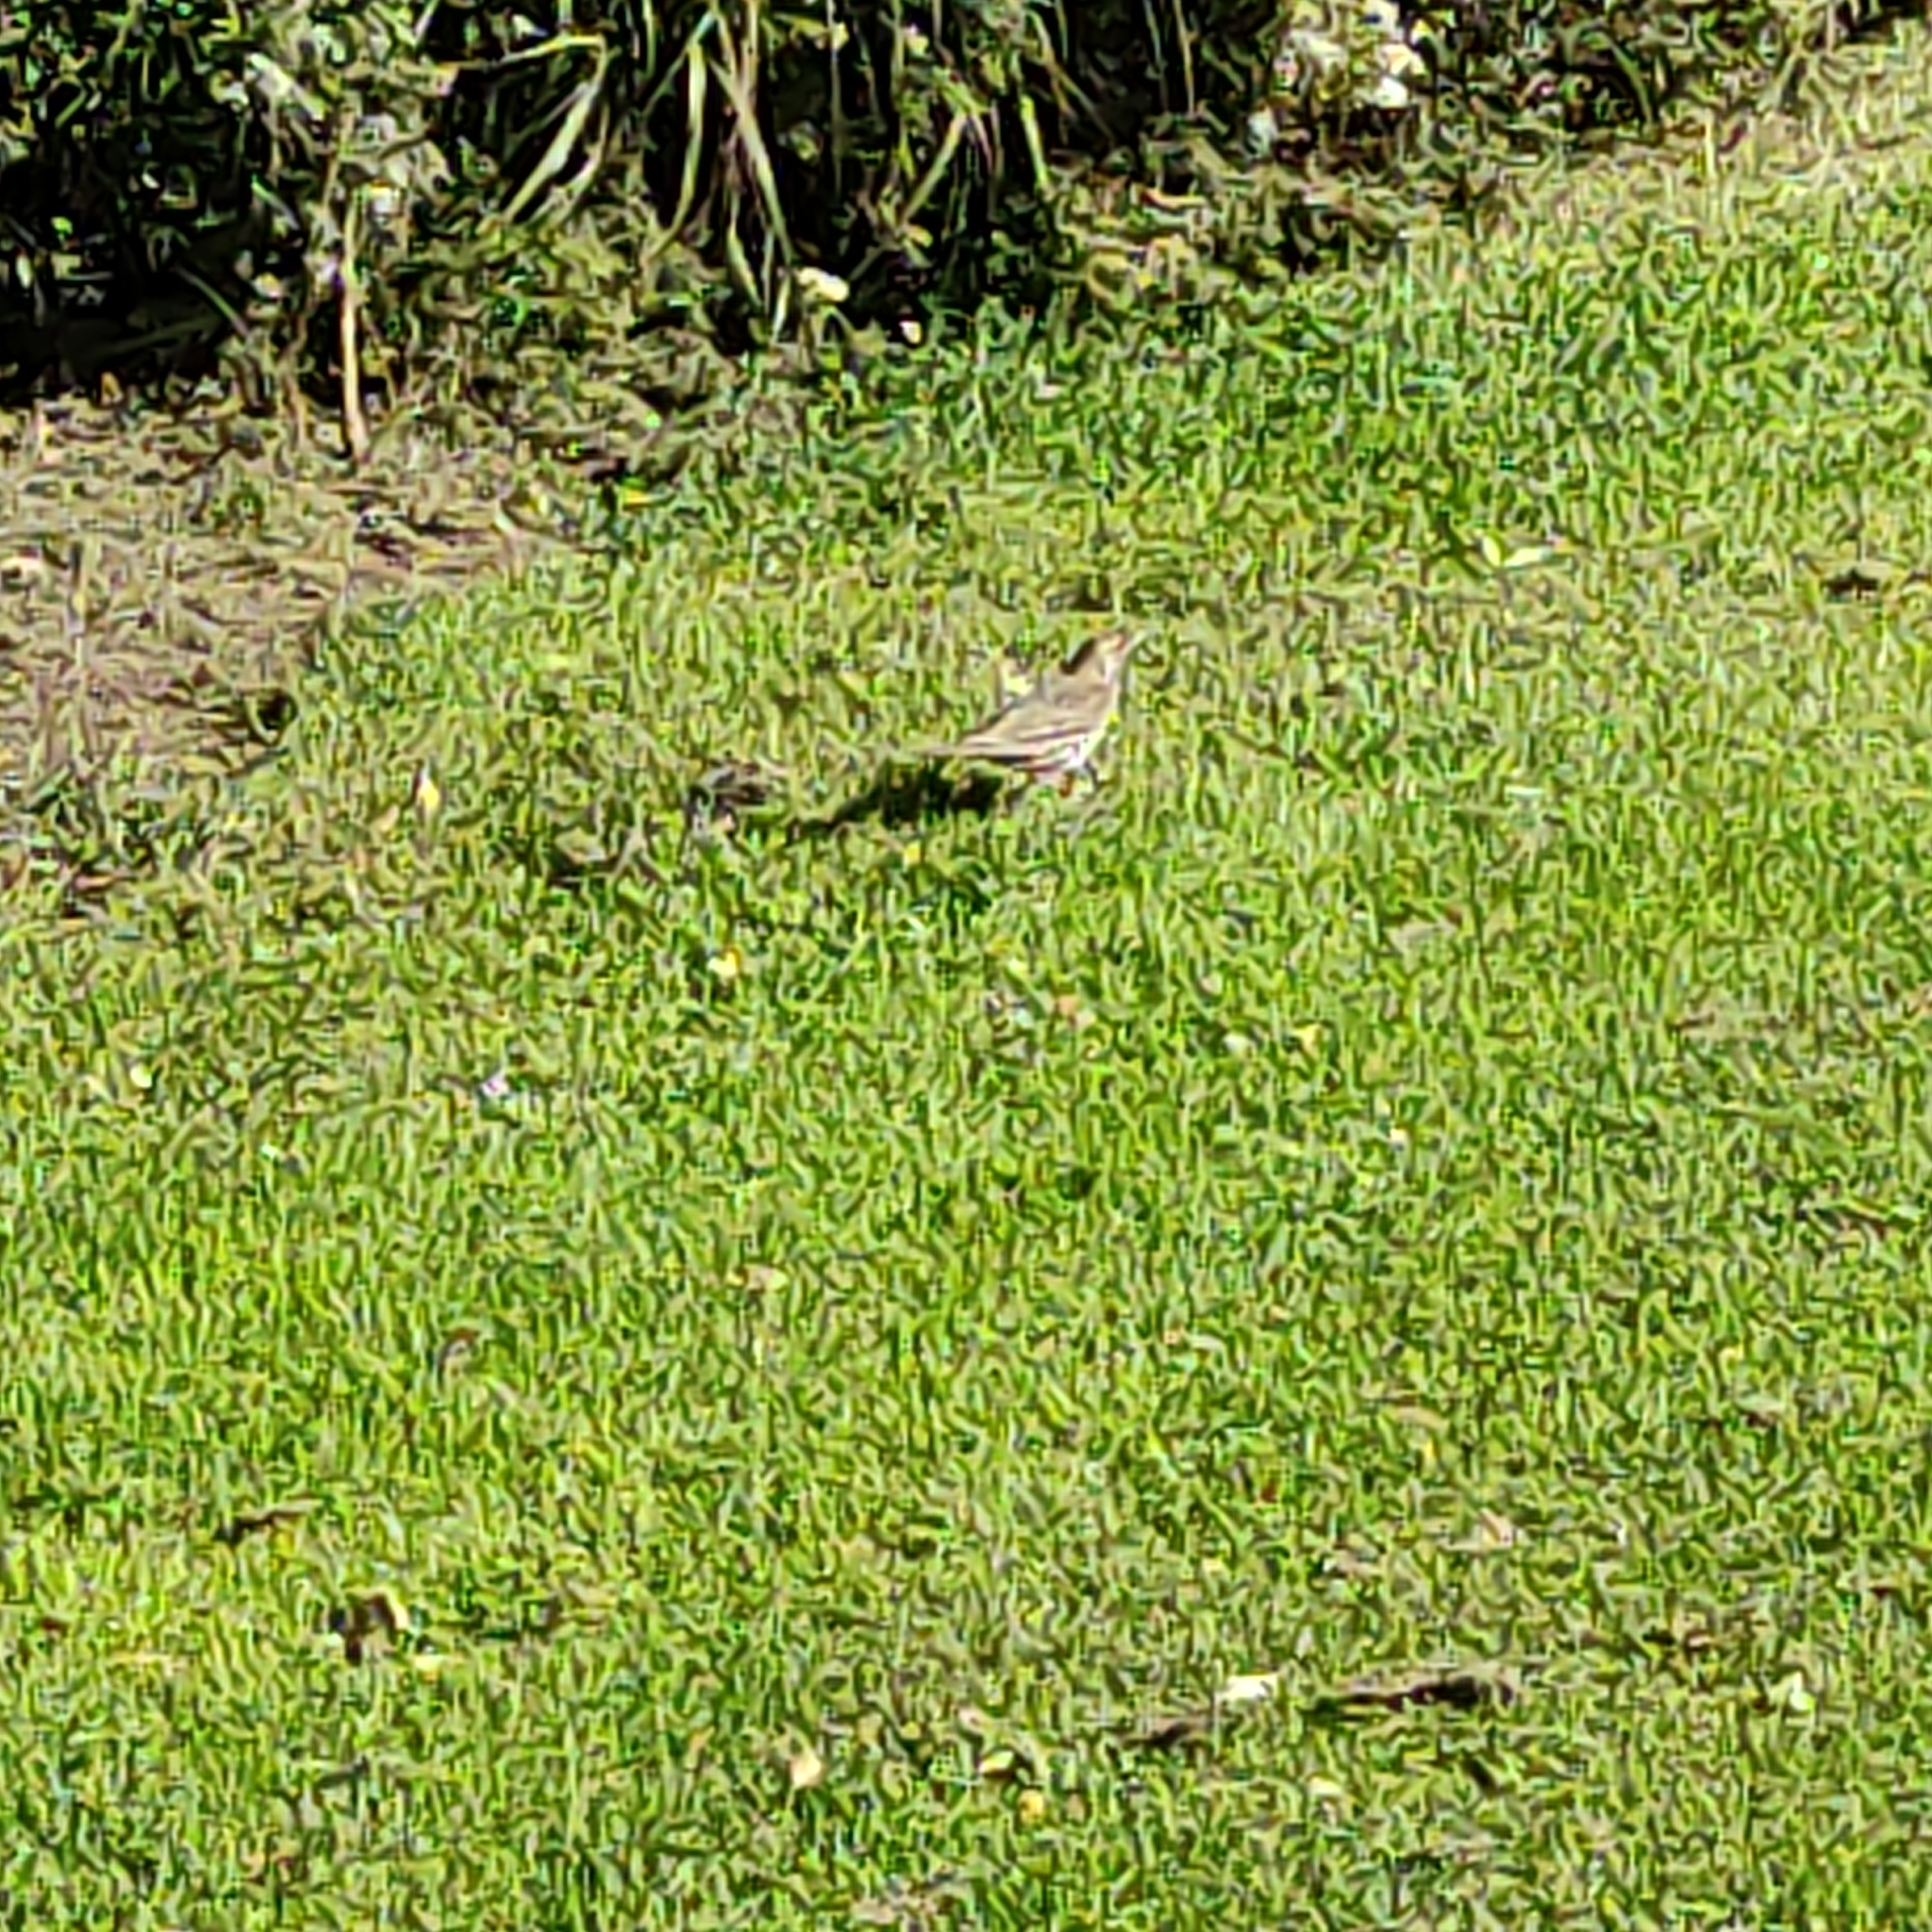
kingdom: Animalia
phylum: Chordata
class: Aves
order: Passeriformes
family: Turdidae
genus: Turdus
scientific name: Turdus philomelos
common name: Song thrush
